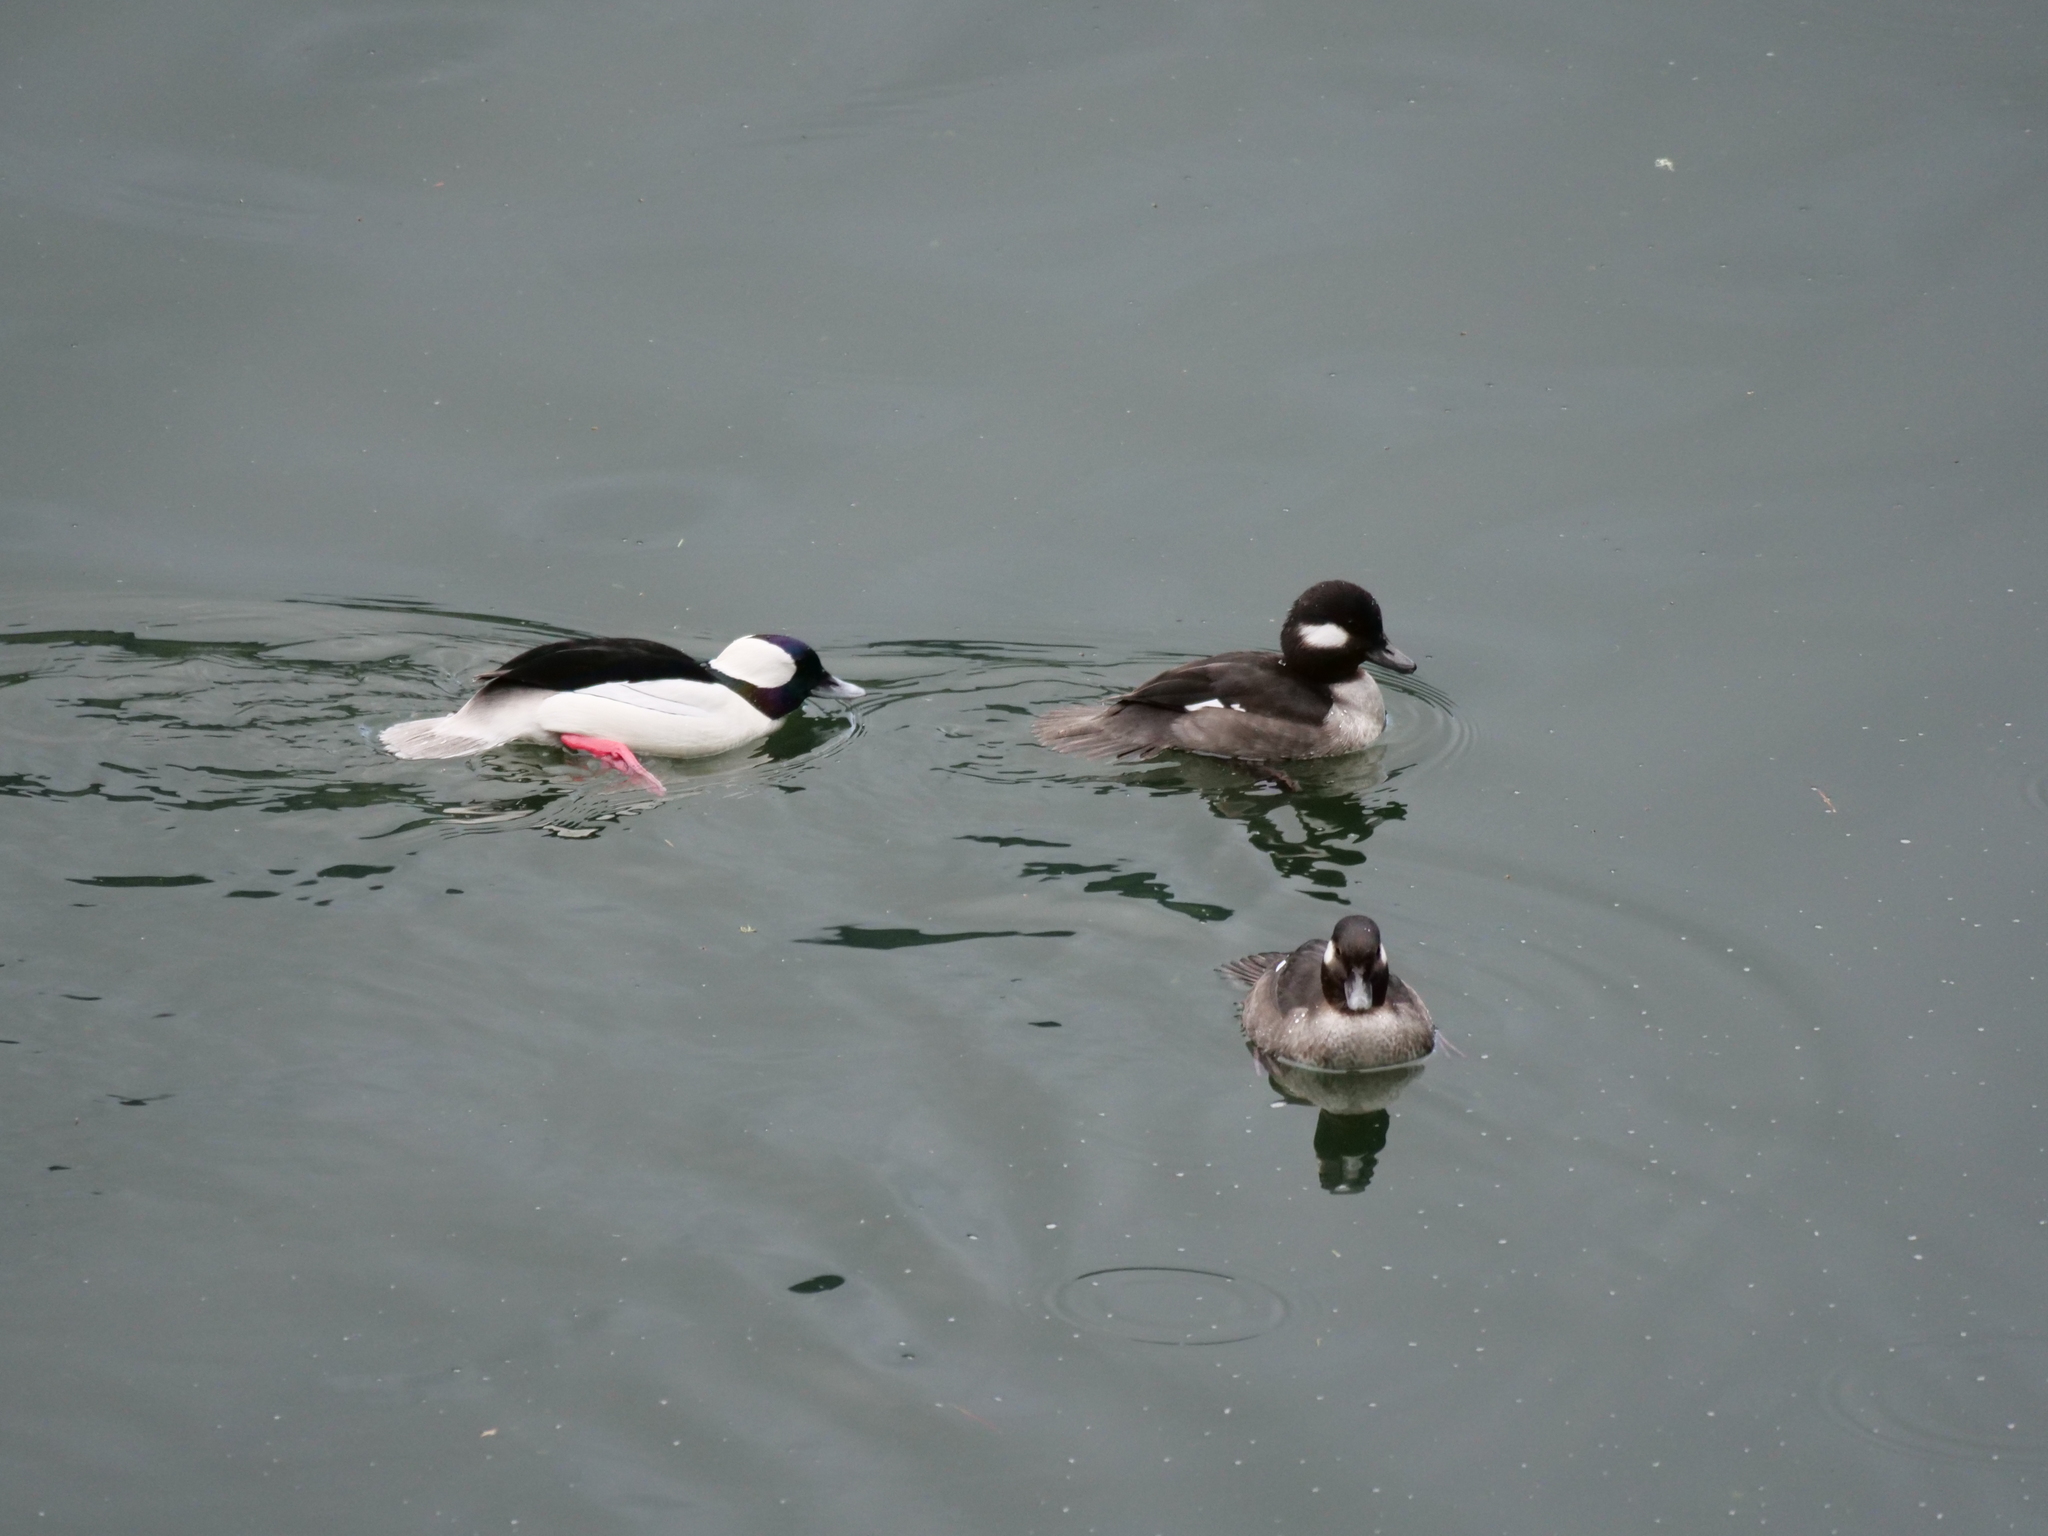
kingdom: Animalia
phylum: Chordata
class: Aves
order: Anseriformes
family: Anatidae
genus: Bucephala
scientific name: Bucephala albeola
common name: Bufflehead
